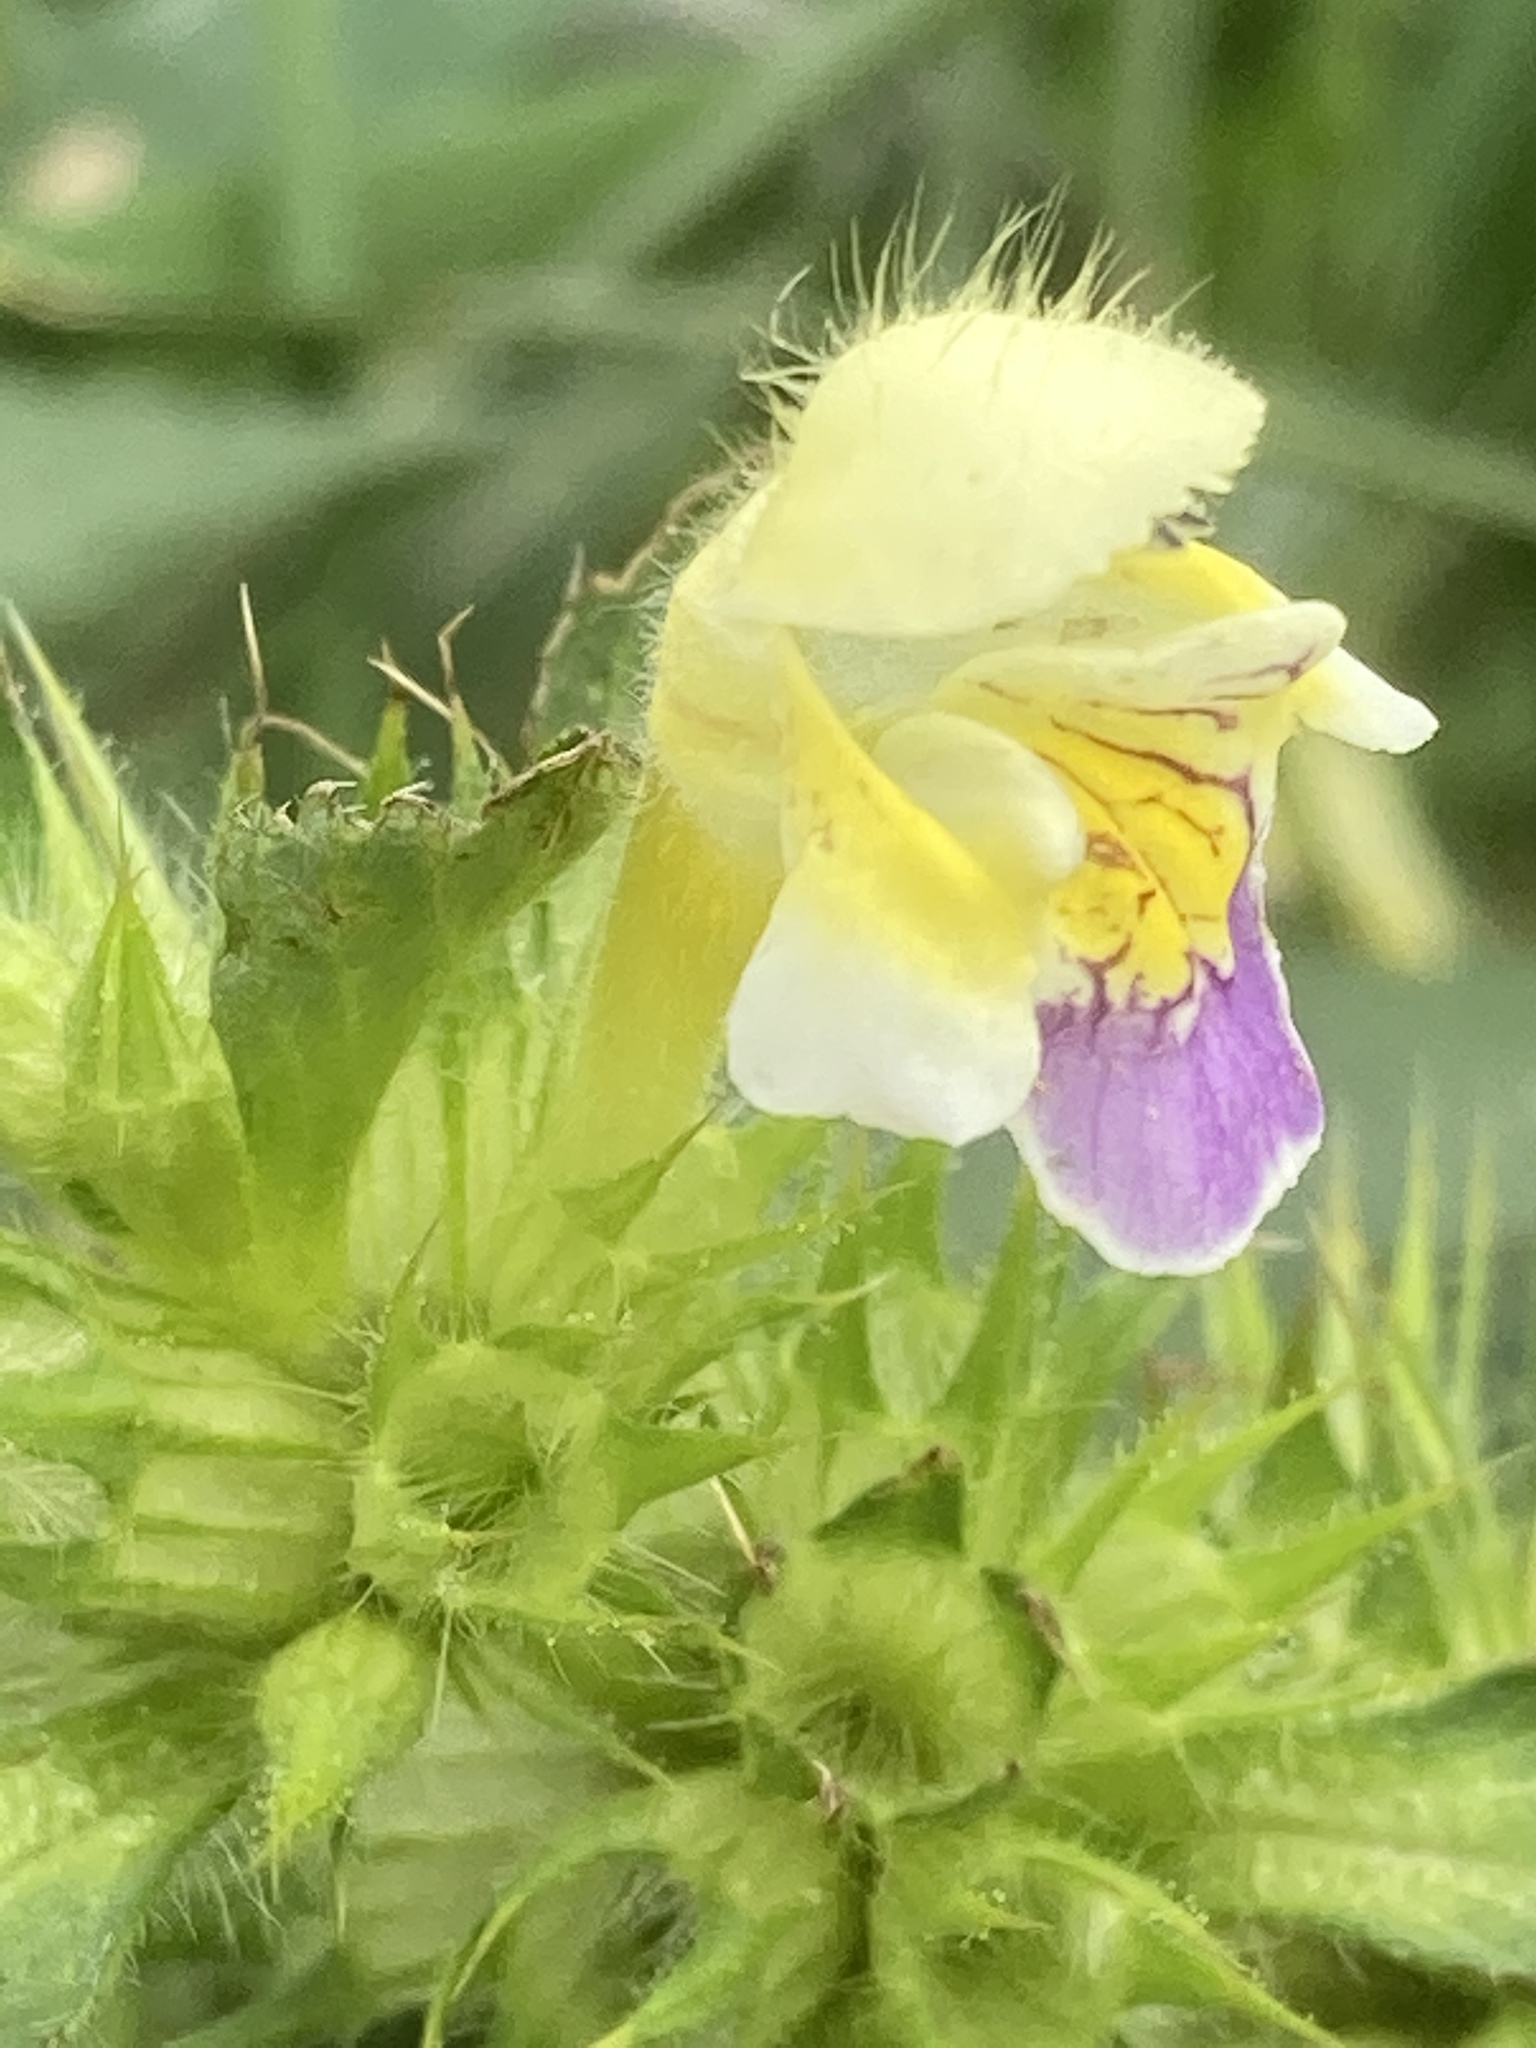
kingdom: Plantae
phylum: Tracheophyta
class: Magnoliopsida
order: Lamiales
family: Lamiaceae
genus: Galeopsis
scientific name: Galeopsis speciosa
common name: Large-flowered hemp-nettle
